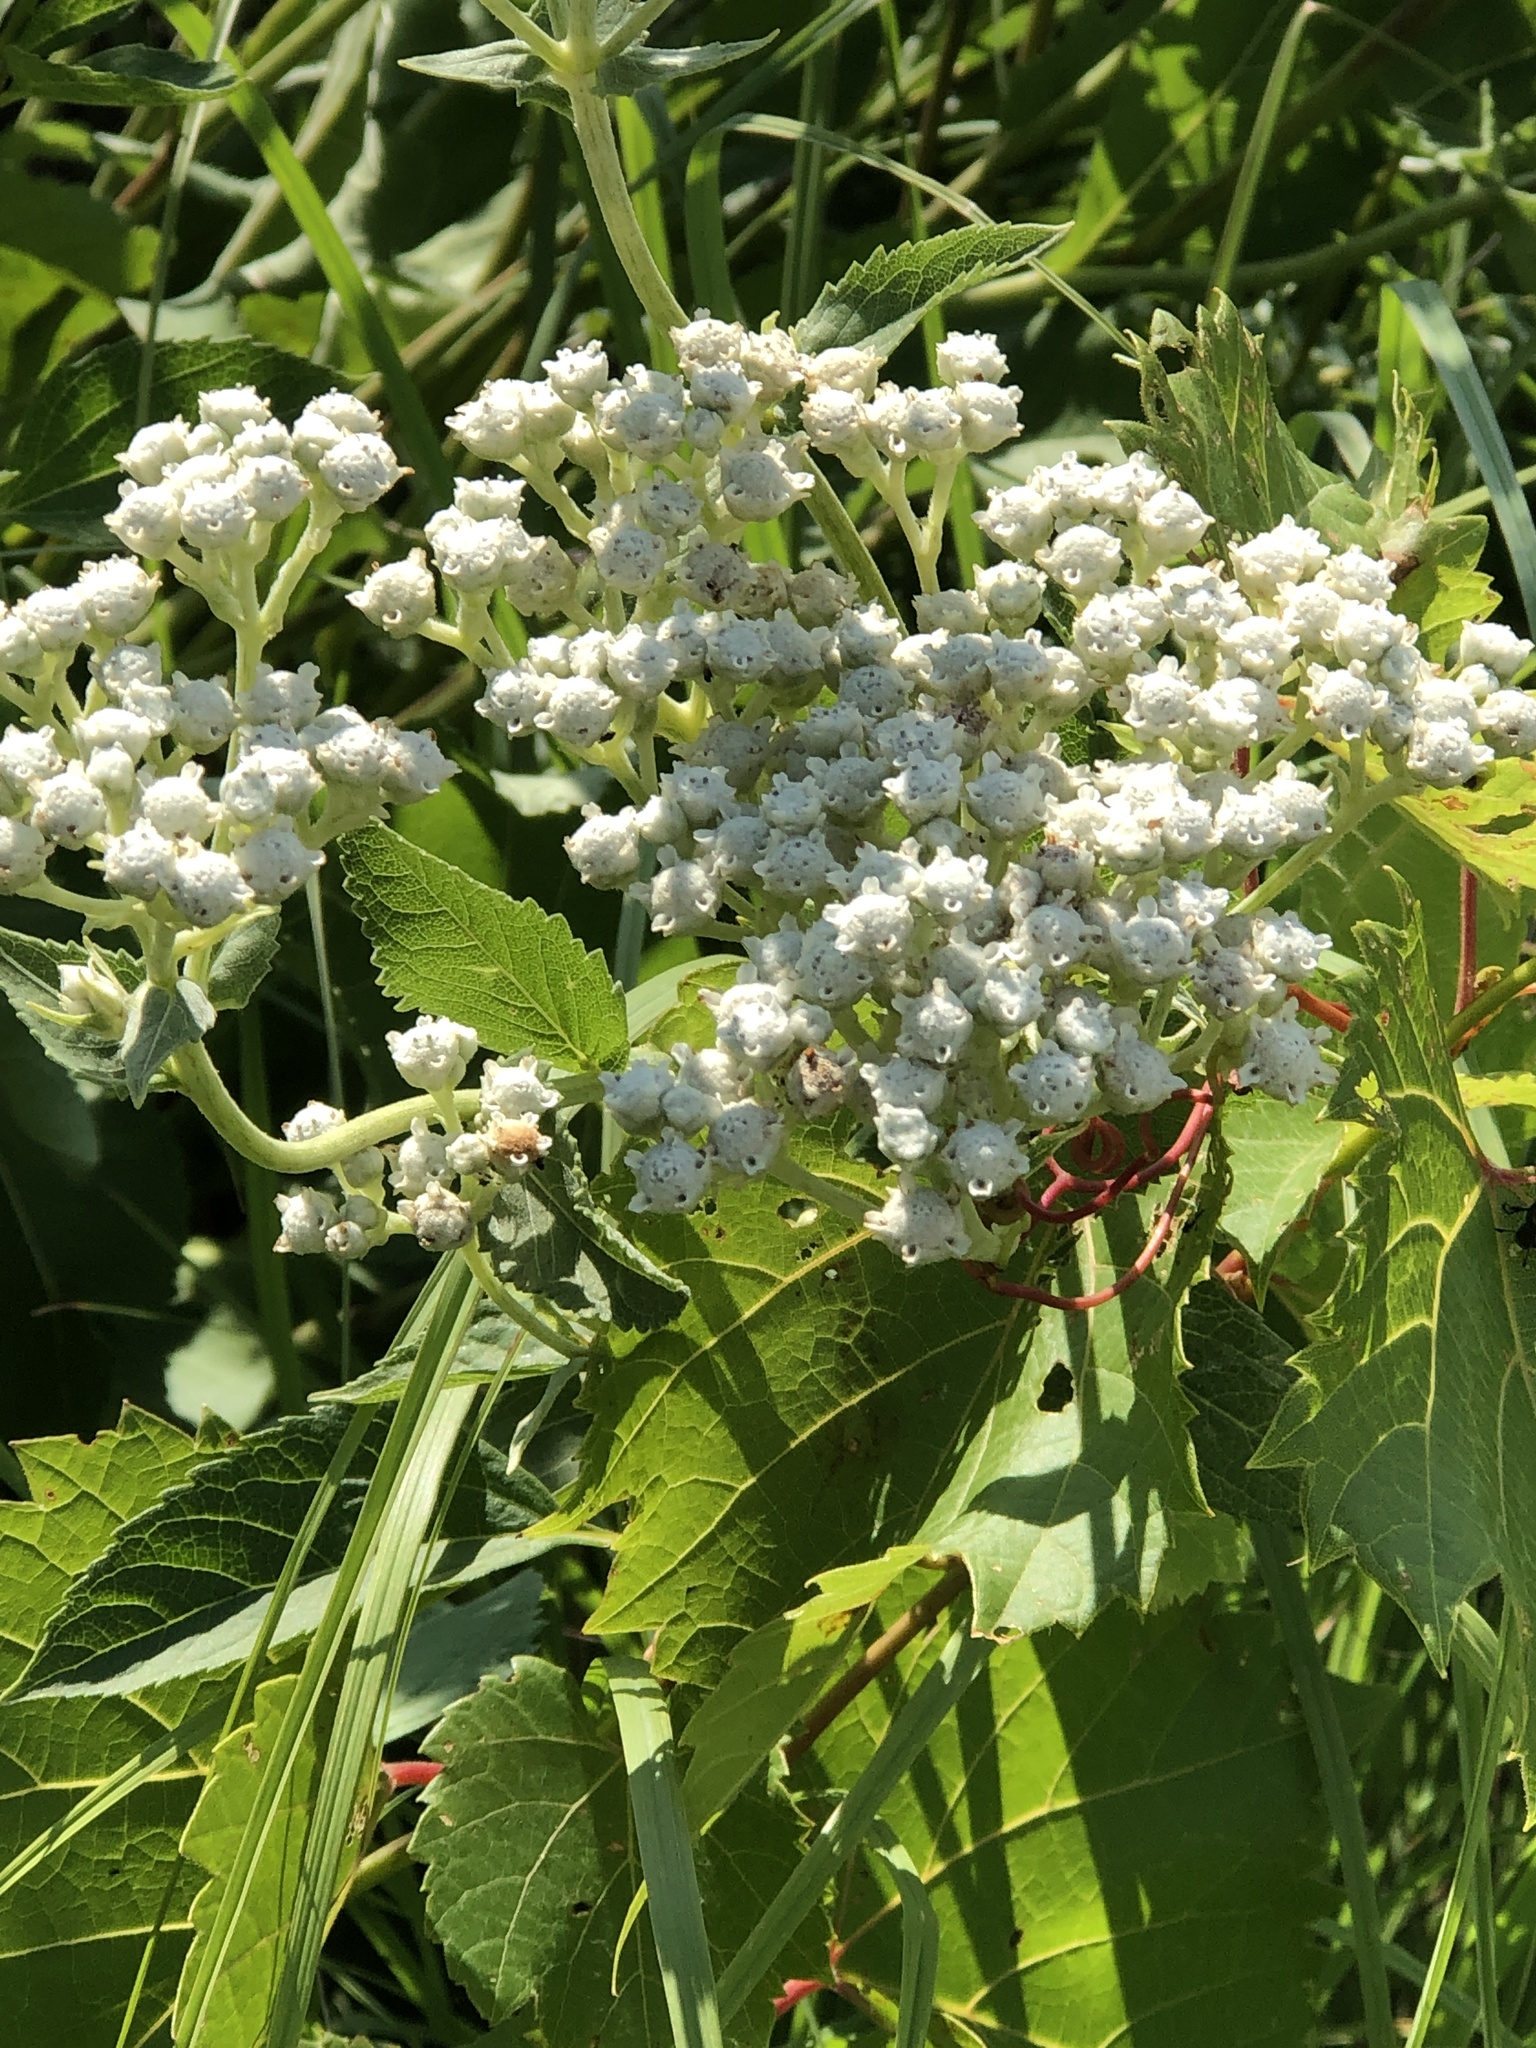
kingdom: Plantae
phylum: Tracheophyta
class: Magnoliopsida
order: Asterales
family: Asteraceae
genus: Parthenium
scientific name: Parthenium integrifolium
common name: American feverfew
